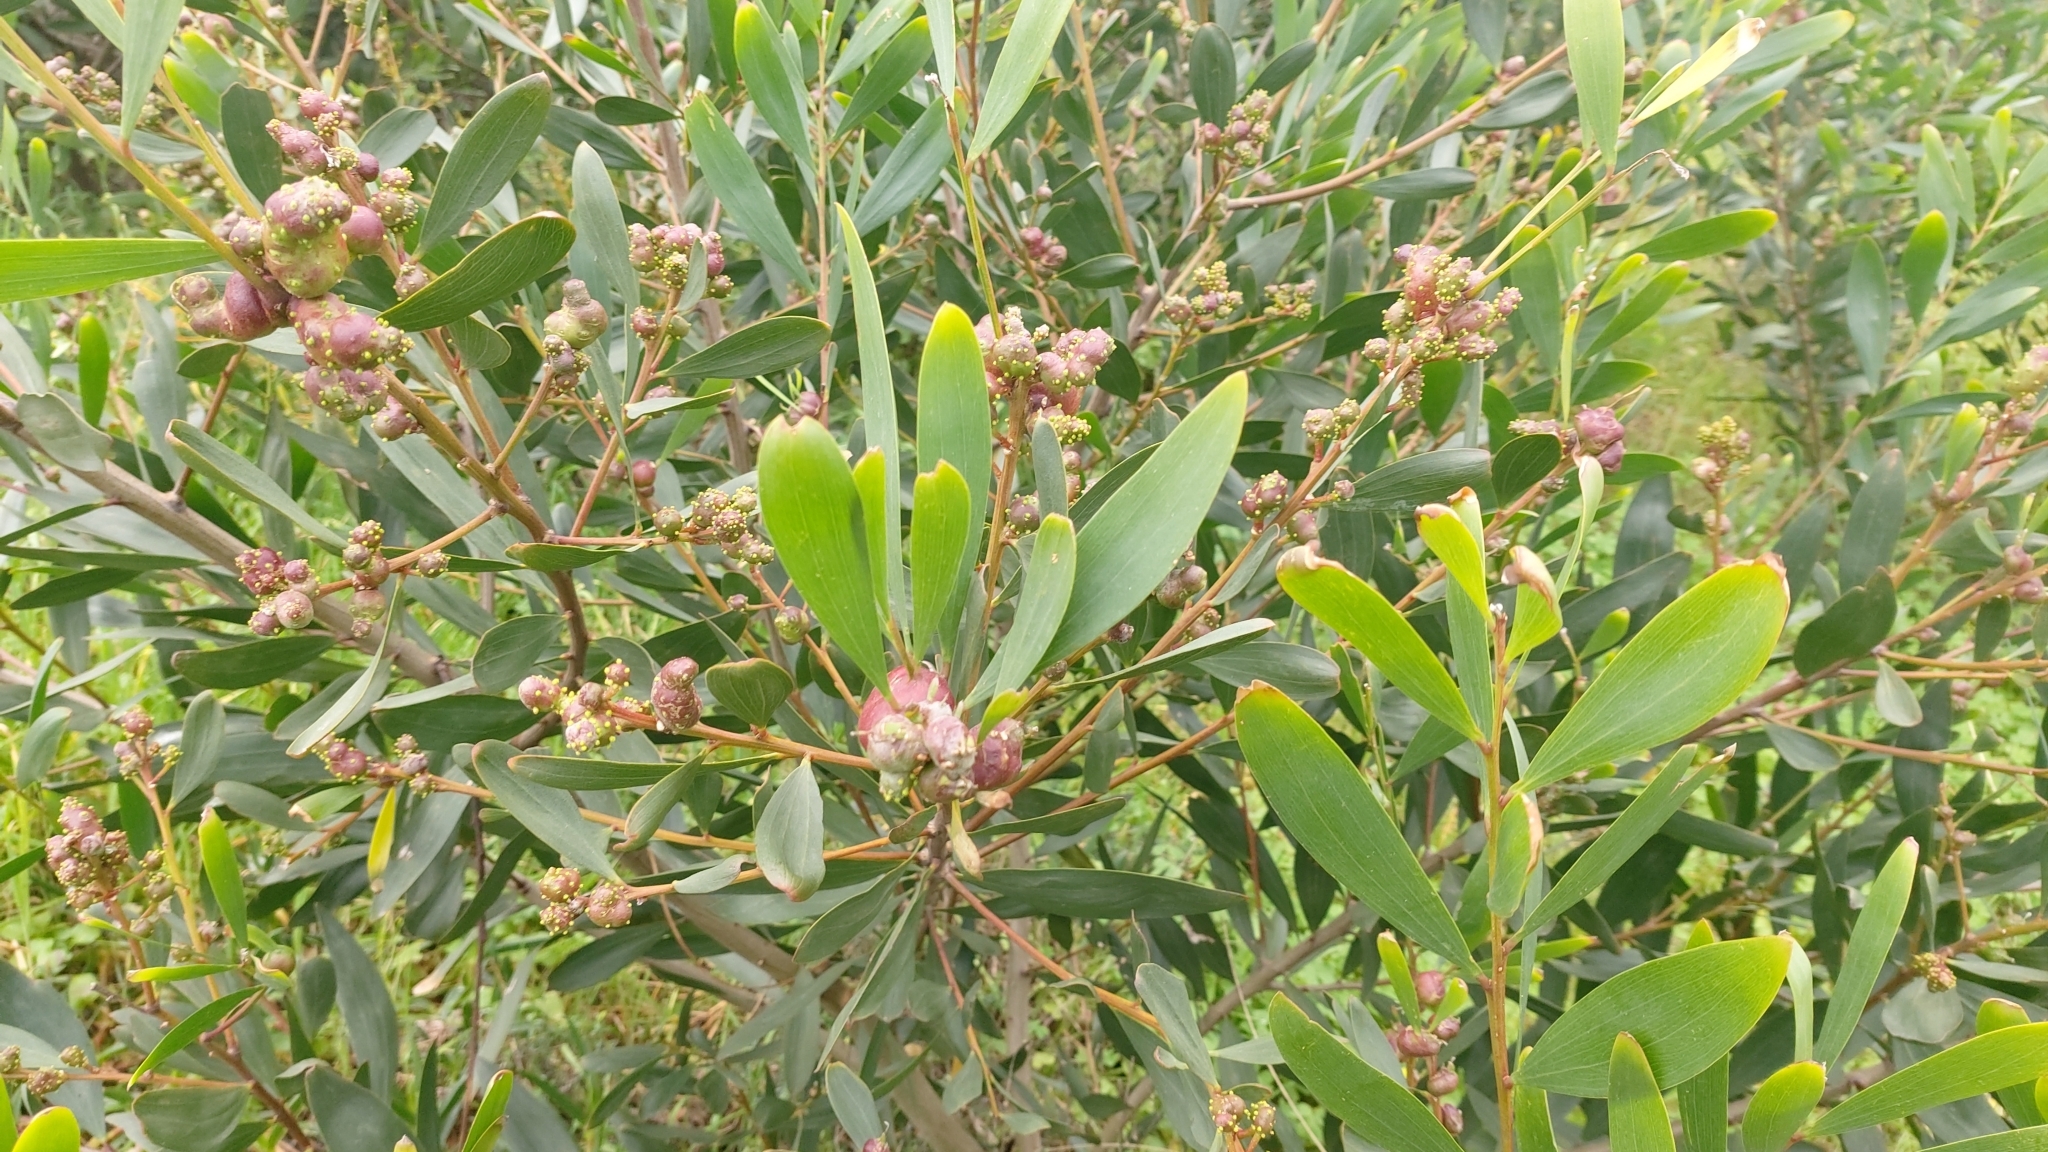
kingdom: Plantae
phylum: Tracheophyta
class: Magnoliopsida
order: Fabales
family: Fabaceae
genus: Acacia
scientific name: Acacia longifolia
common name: Sydney golden wattle
